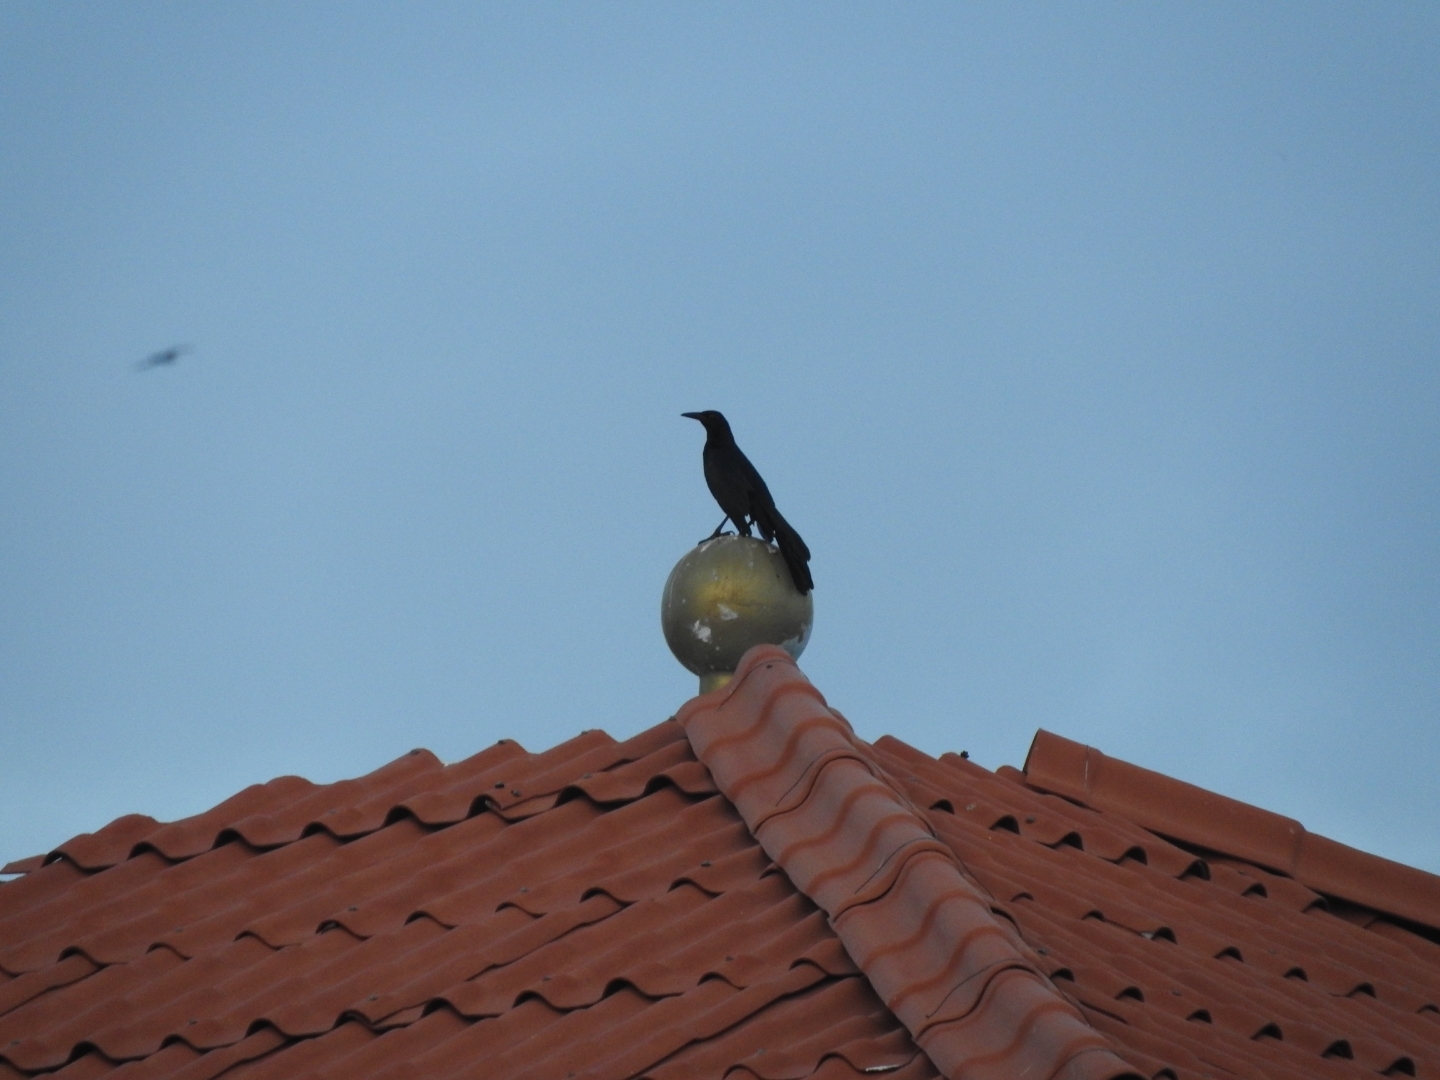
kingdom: Animalia
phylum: Chordata
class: Aves
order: Passeriformes
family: Icteridae
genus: Quiscalus
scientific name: Quiscalus mexicanus
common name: Great-tailed grackle
